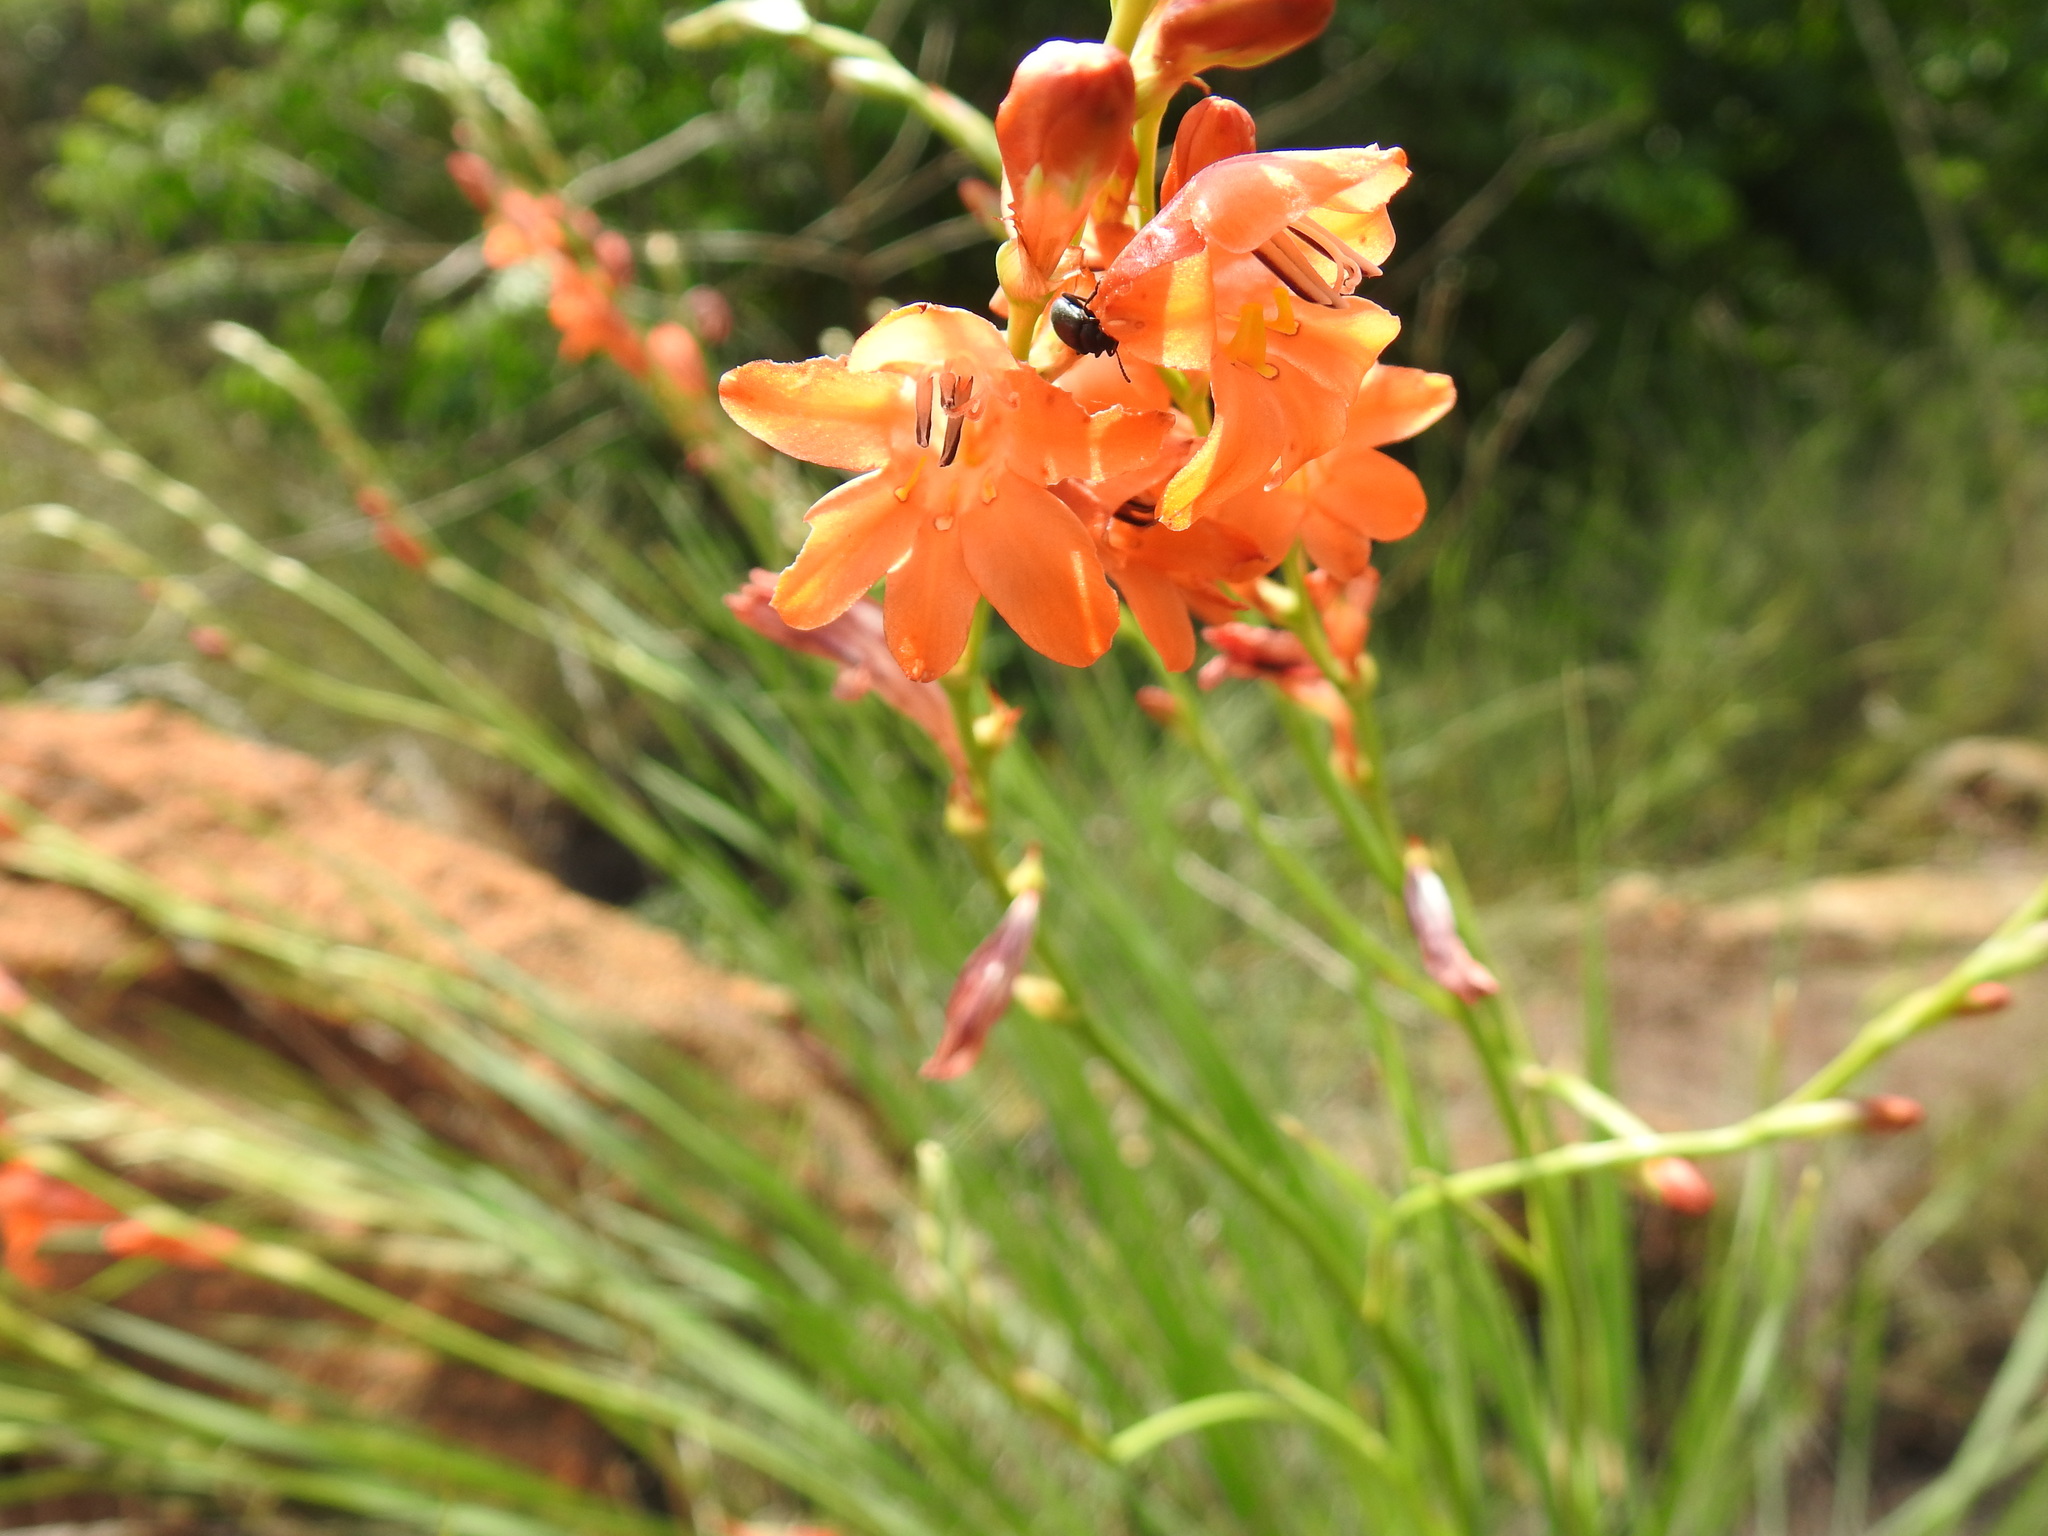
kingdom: Plantae
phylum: Tracheophyta
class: Liliopsida
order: Asparagales
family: Iridaceae
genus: Tritonia
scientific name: Tritonia nelsonii
